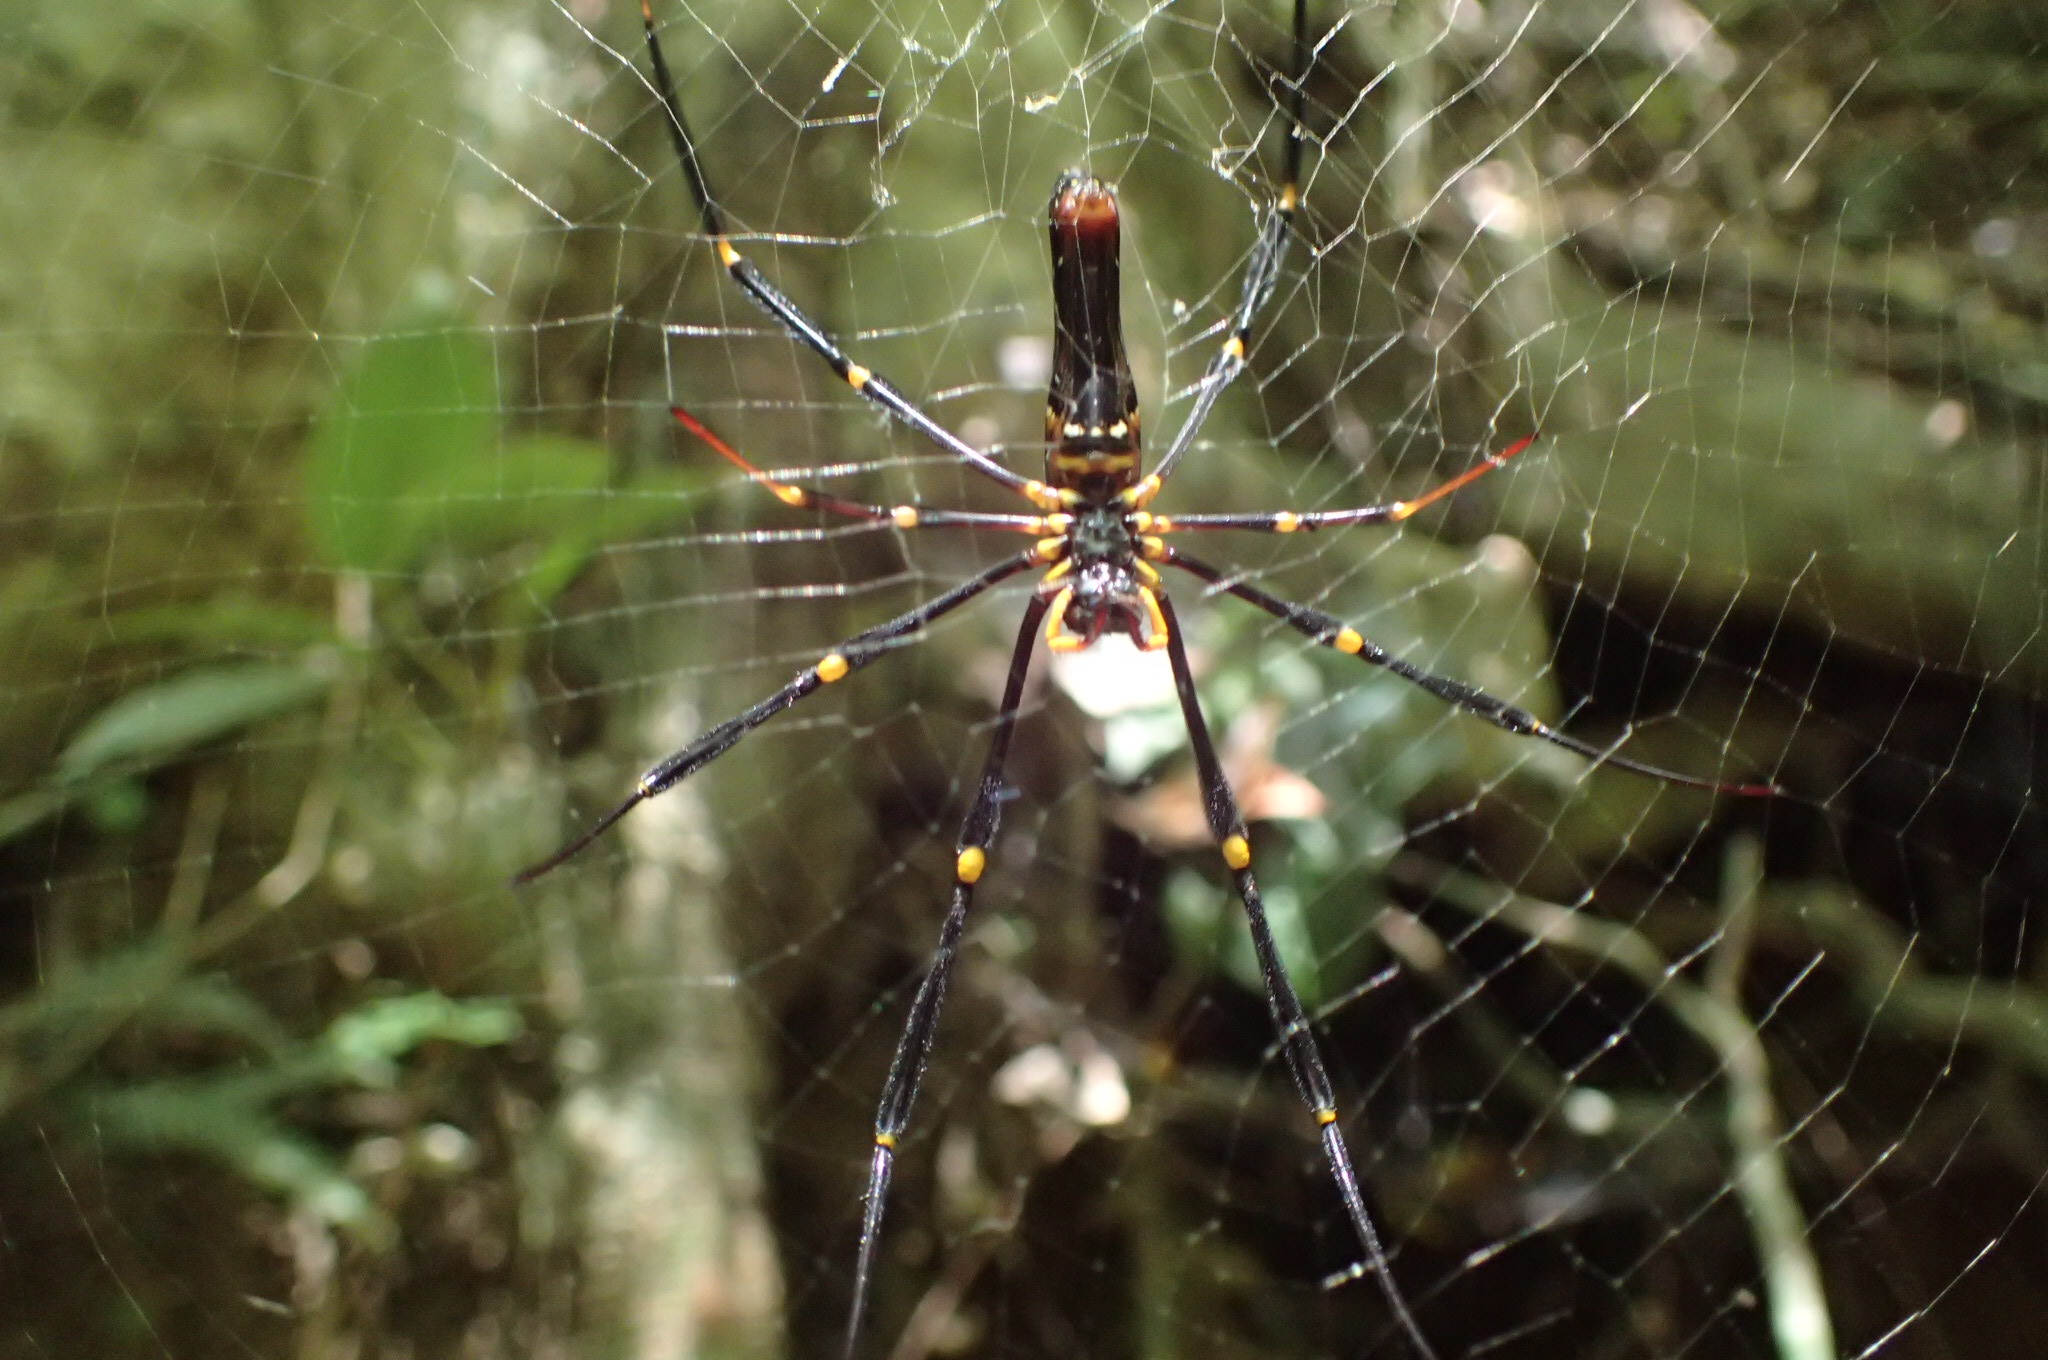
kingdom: Animalia
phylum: Arthropoda
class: Arachnida
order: Araneae
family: Araneidae
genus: Nephila
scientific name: Nephila pilipes
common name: Giant golden orb weaver
